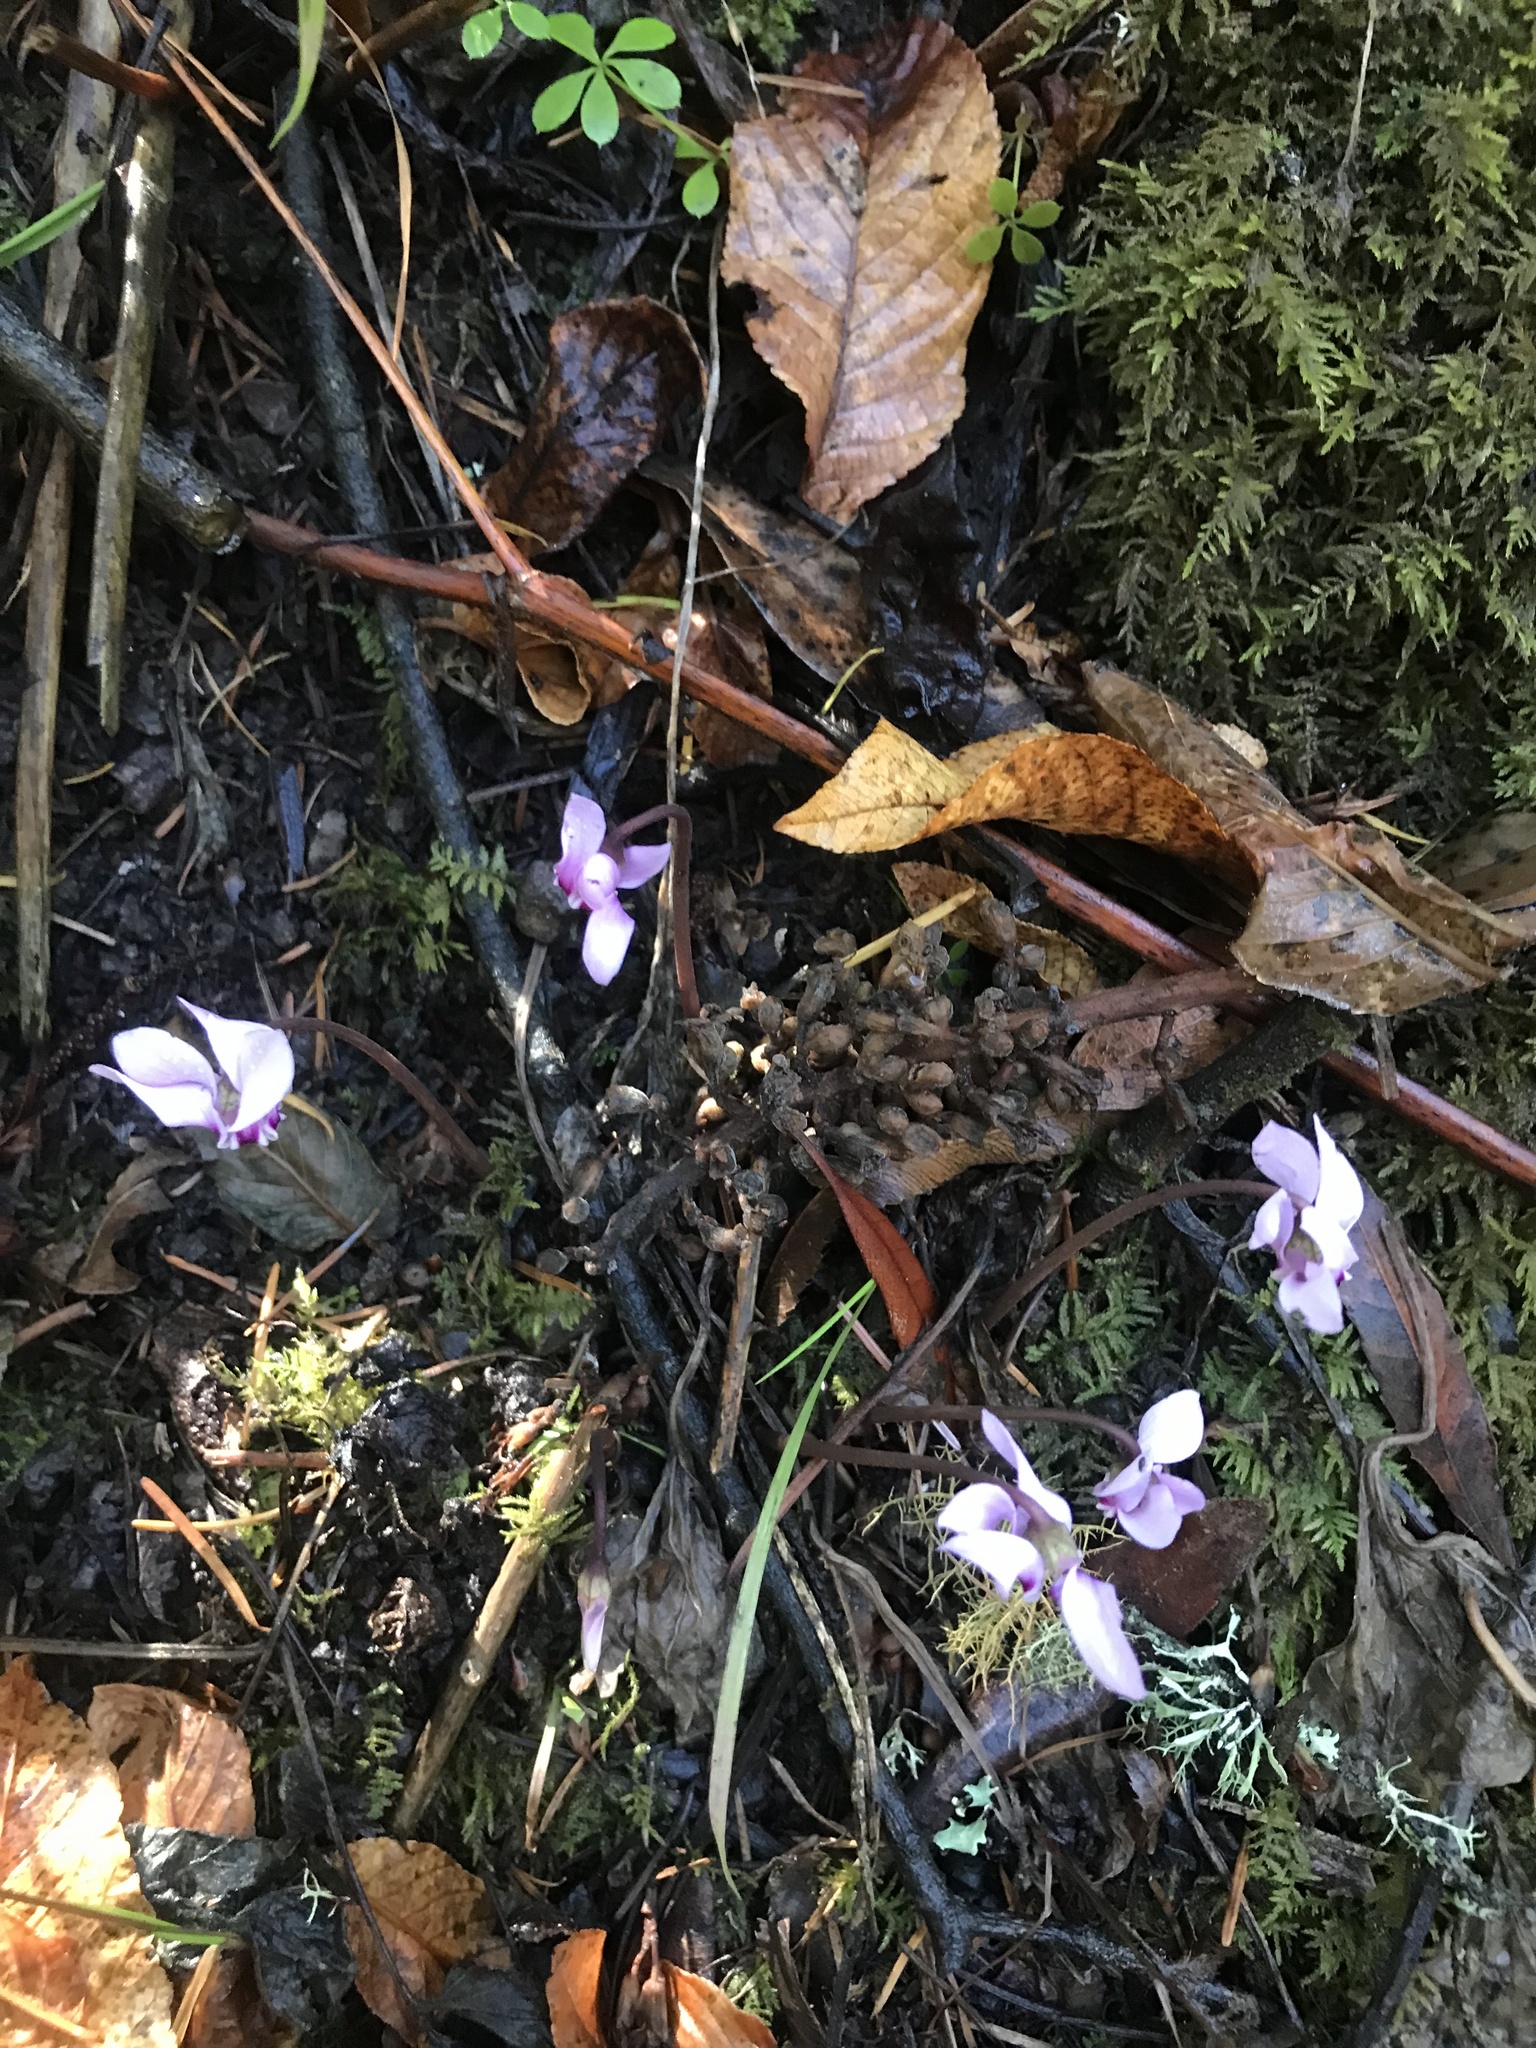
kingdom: Plantae
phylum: Tracheophyta
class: Magnoliopsida
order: Ericales
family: Primulaceae
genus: Cyclamen
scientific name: Cyclamen hederifolium
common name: Sowbread
